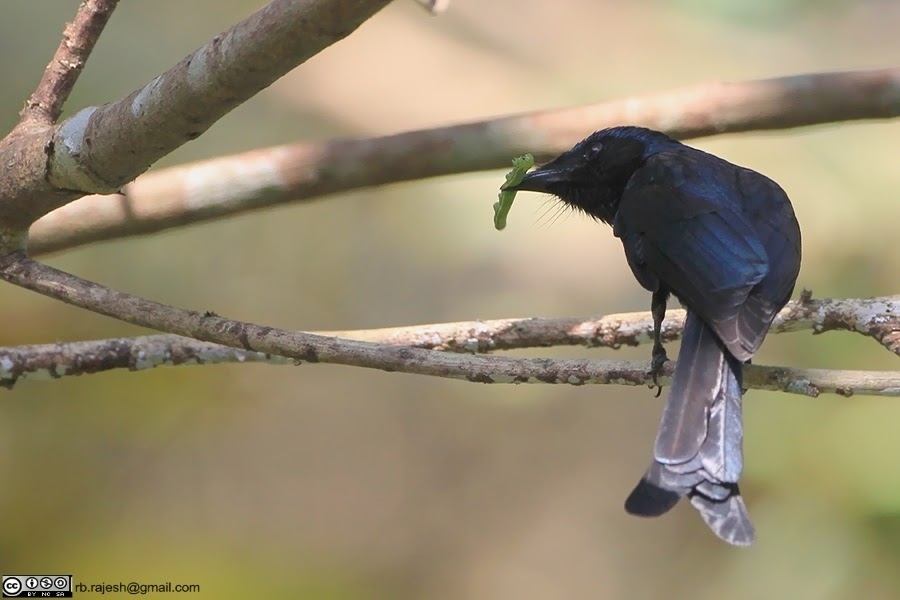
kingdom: Animalia
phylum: Chordata
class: Aves
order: Passeriformes
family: Dicruridae
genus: Dicrurus
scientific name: Dicrurus aeneus
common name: Bronzed drongo
